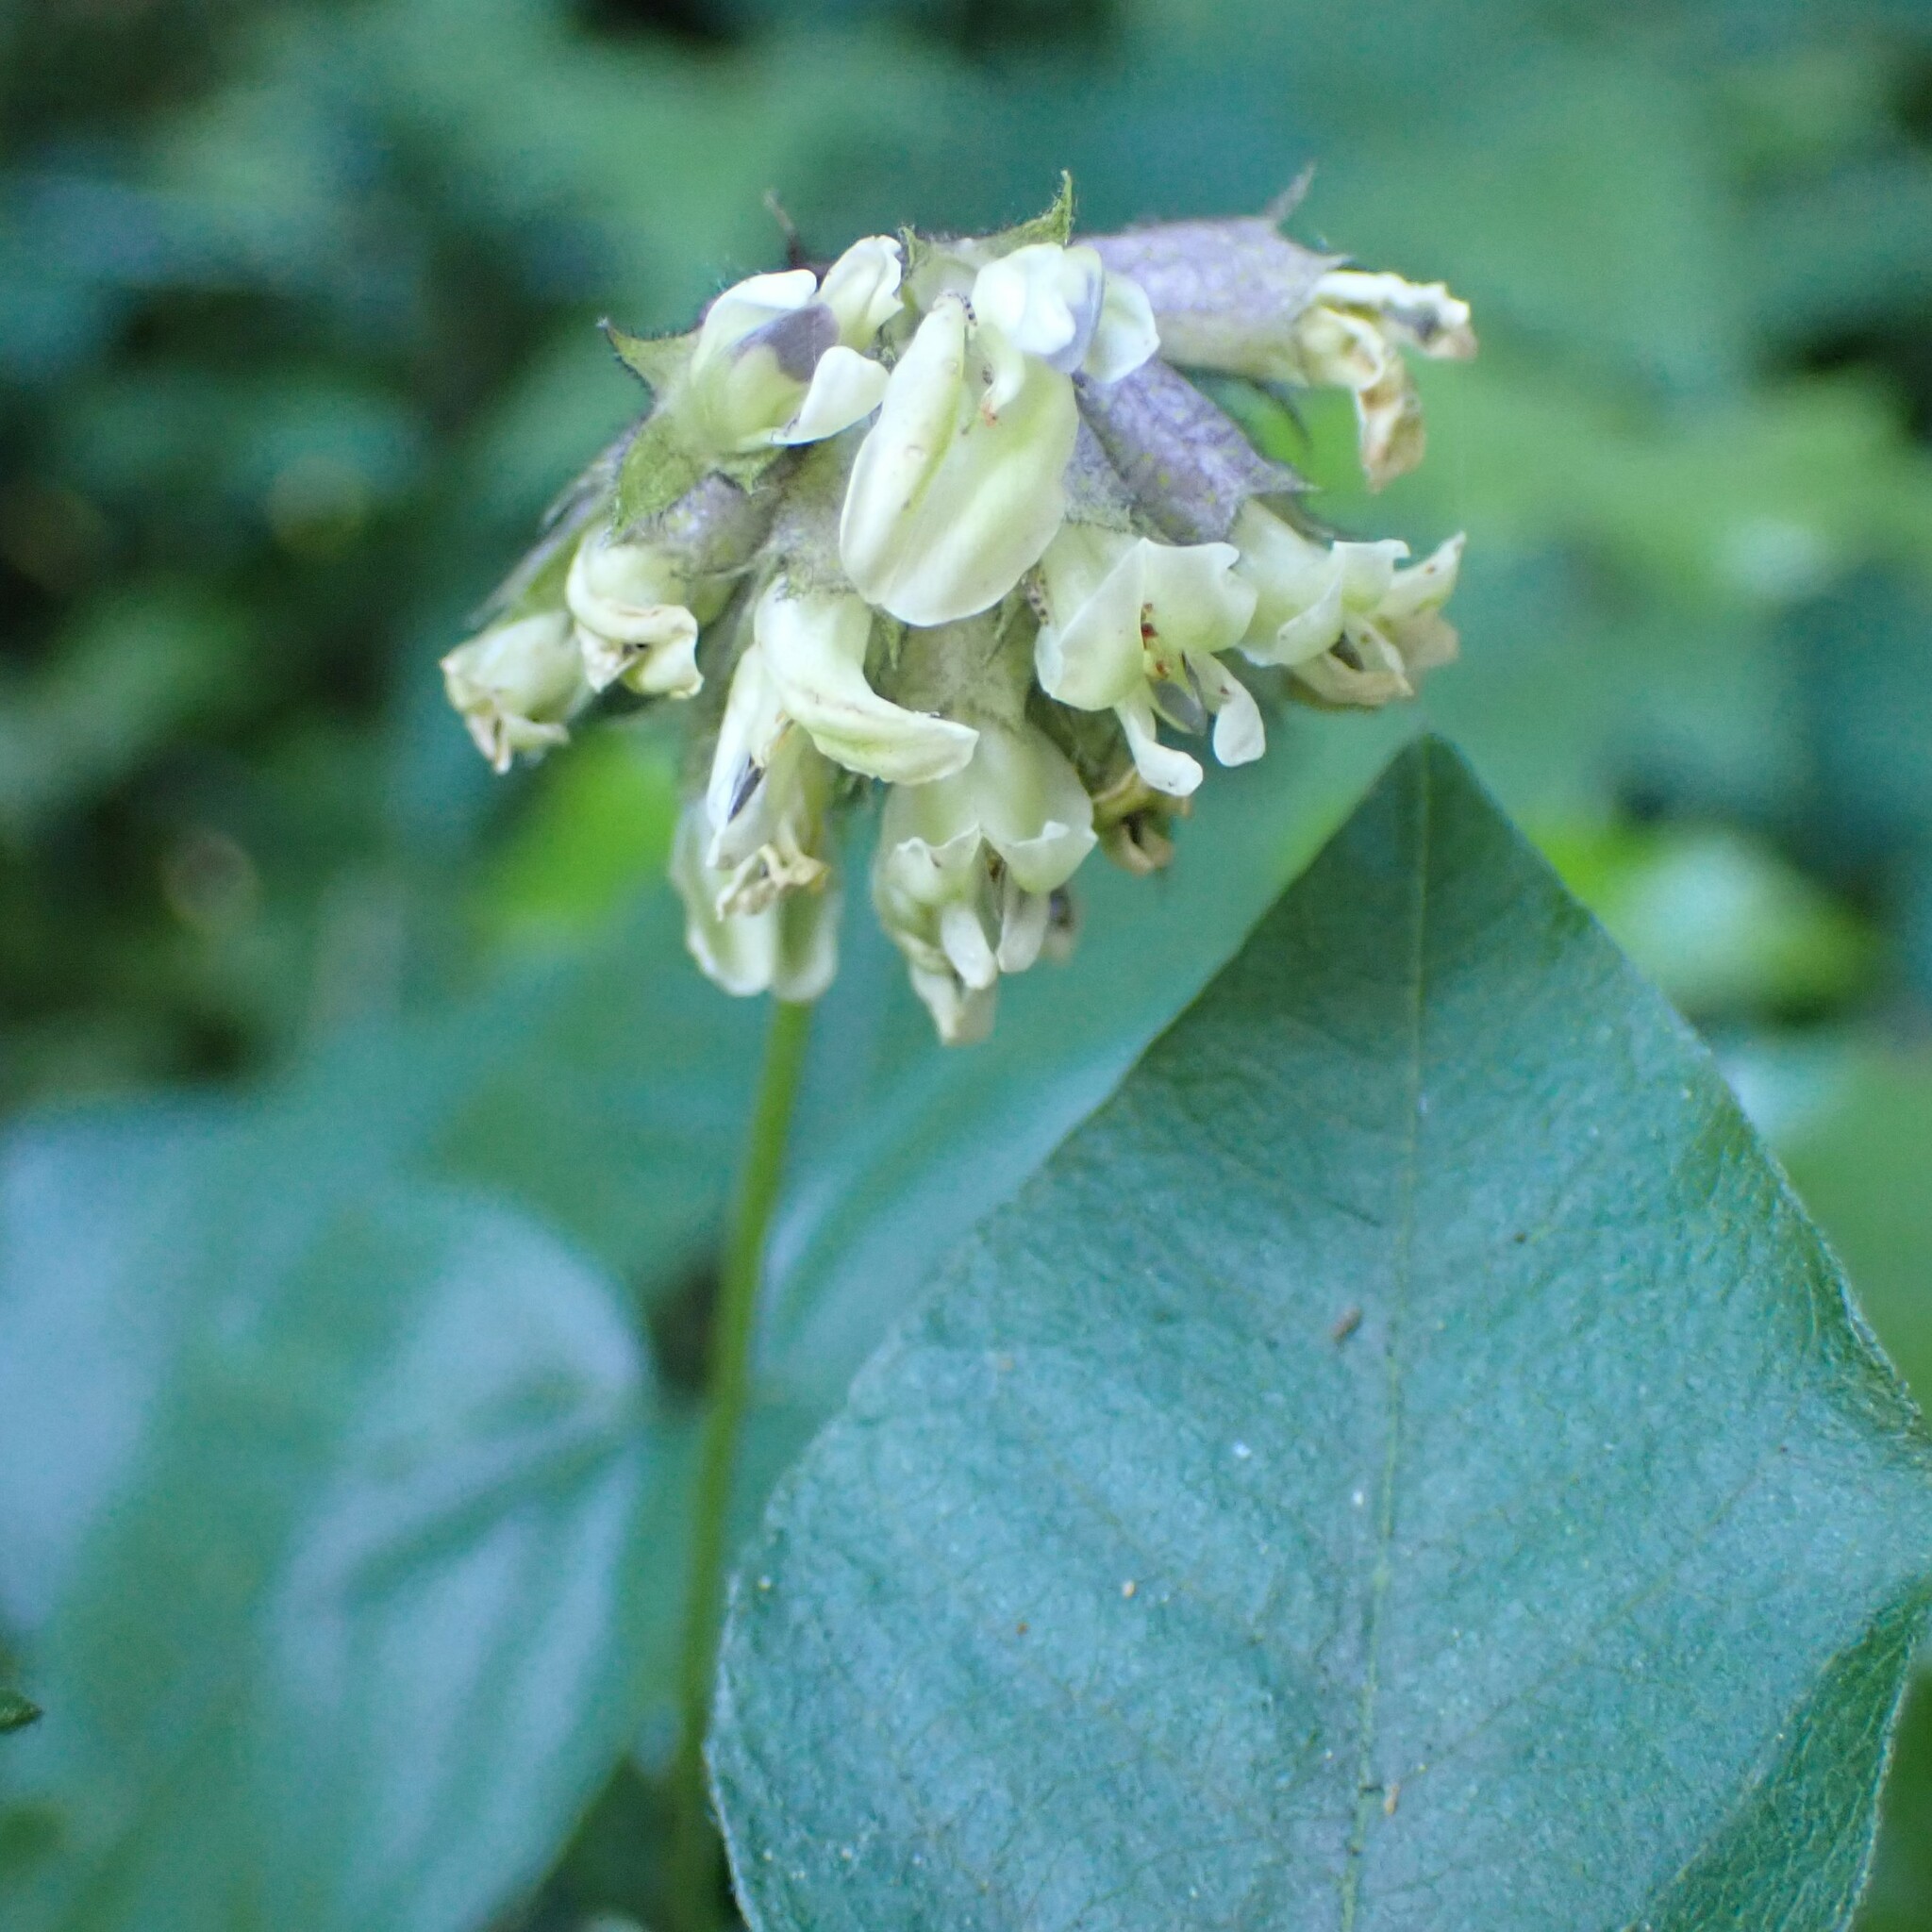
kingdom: Plantae
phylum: Tracheophyta
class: Magnoliopsida
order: Fabales
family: Fabaceae
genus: Rupertia
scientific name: Rupertia physodes
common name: California-tea
